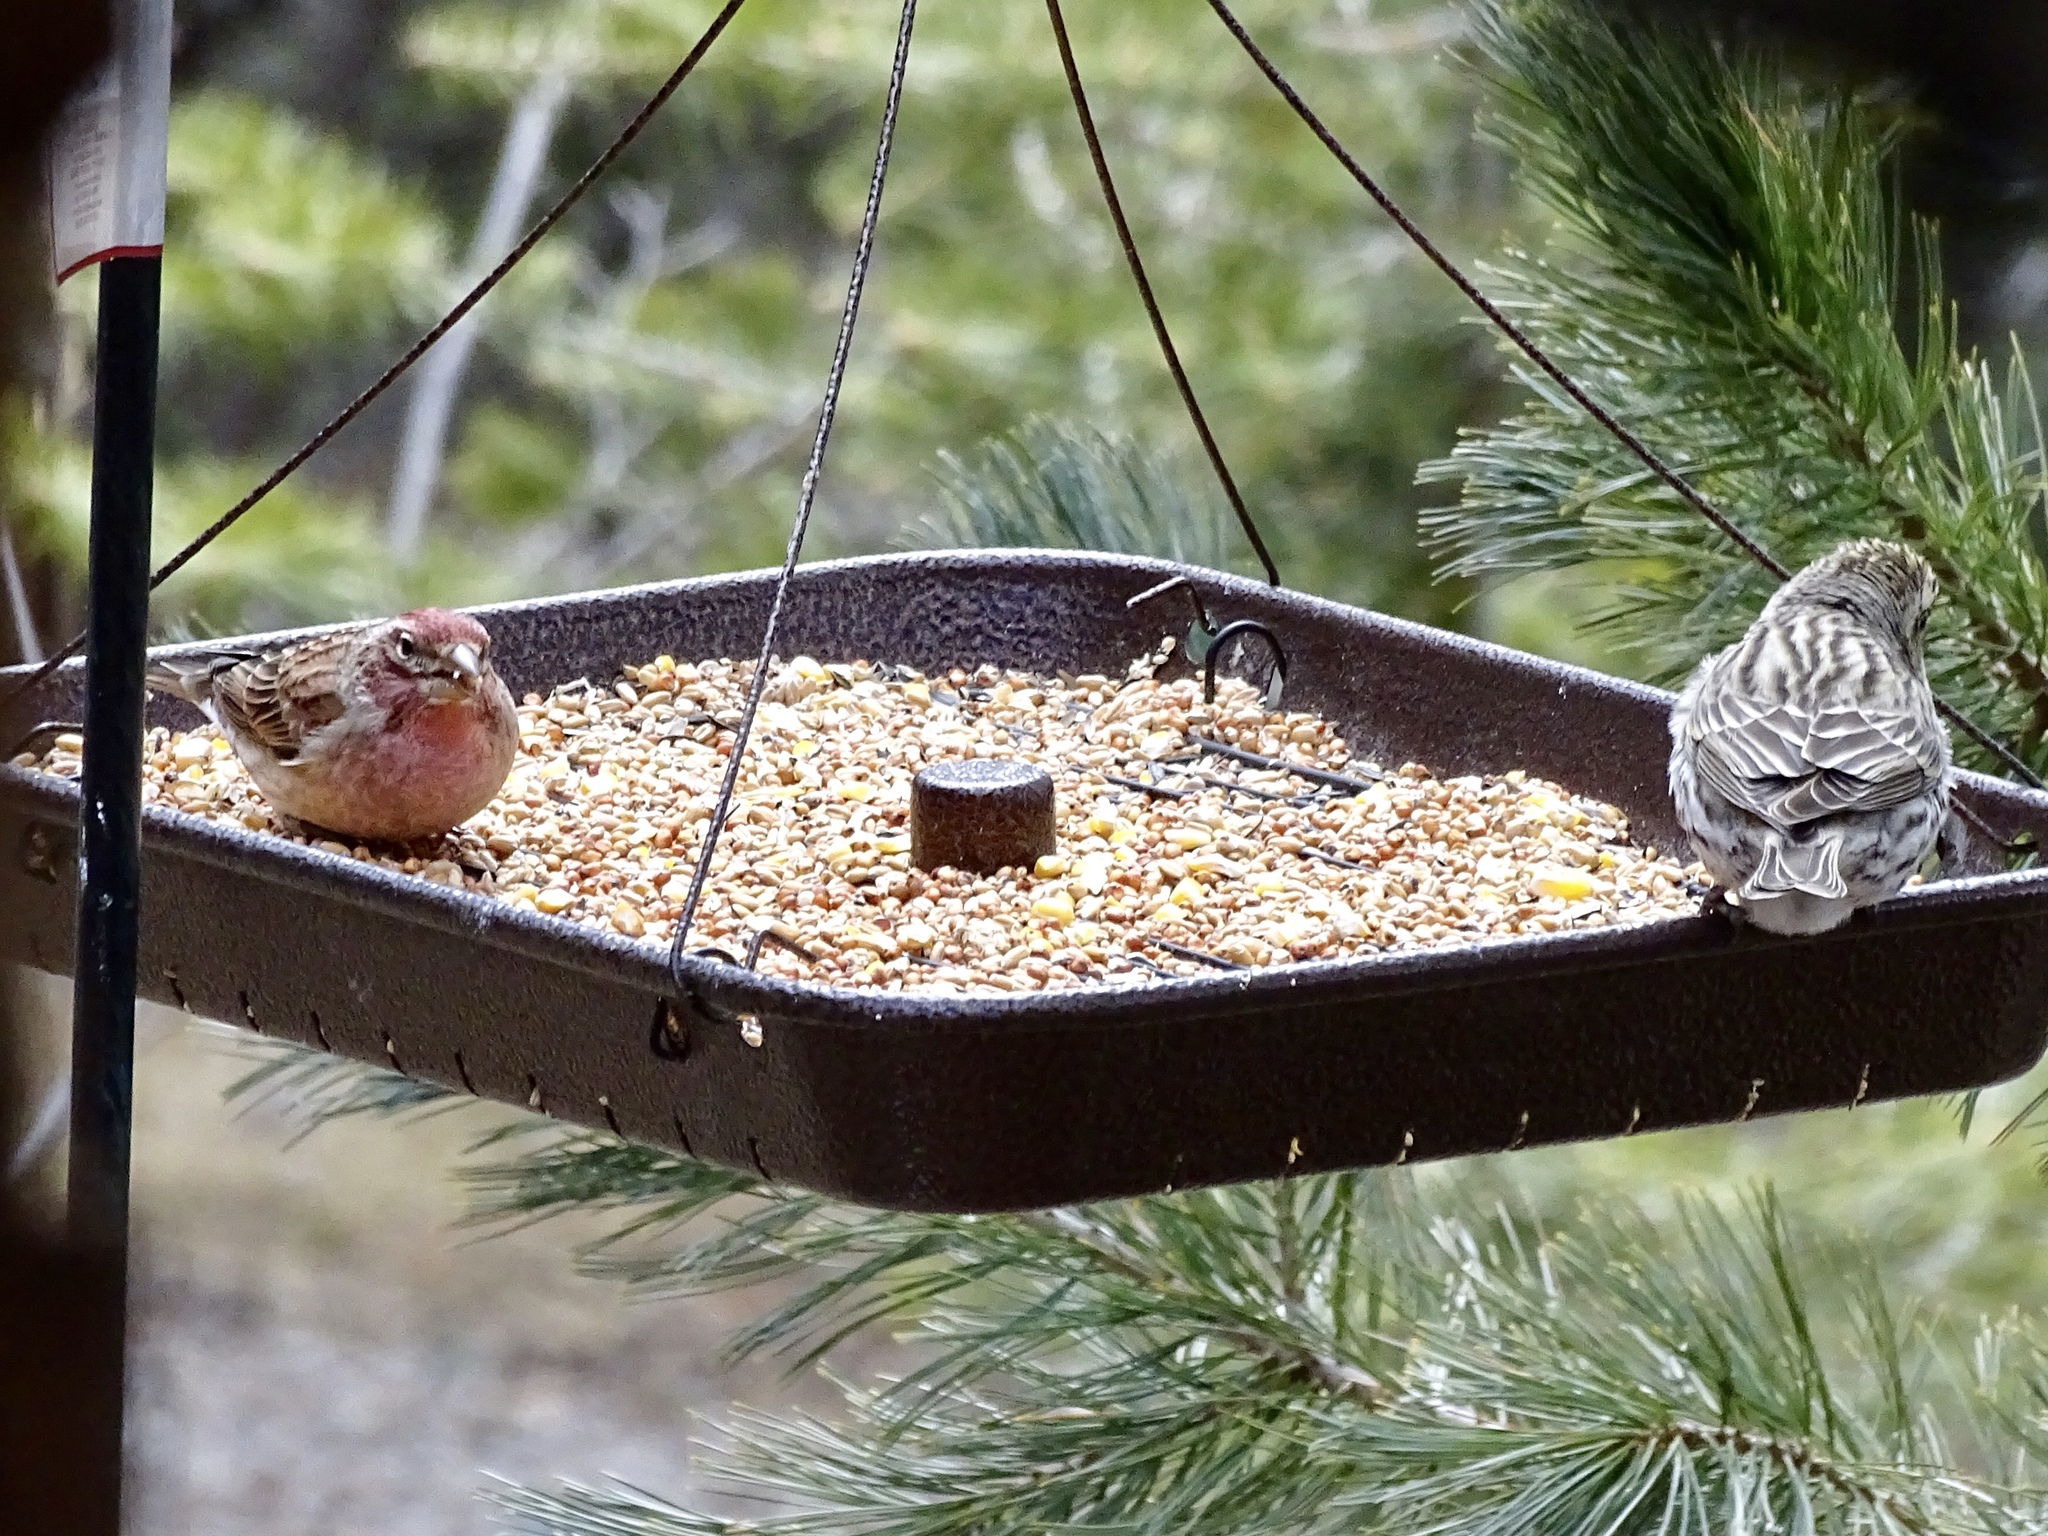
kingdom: Animalia
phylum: Chordata
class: Aves
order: Passeriformes
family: Fringillidae
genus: Haemorhous
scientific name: Haemorhous cassinii
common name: Cassin's finch
